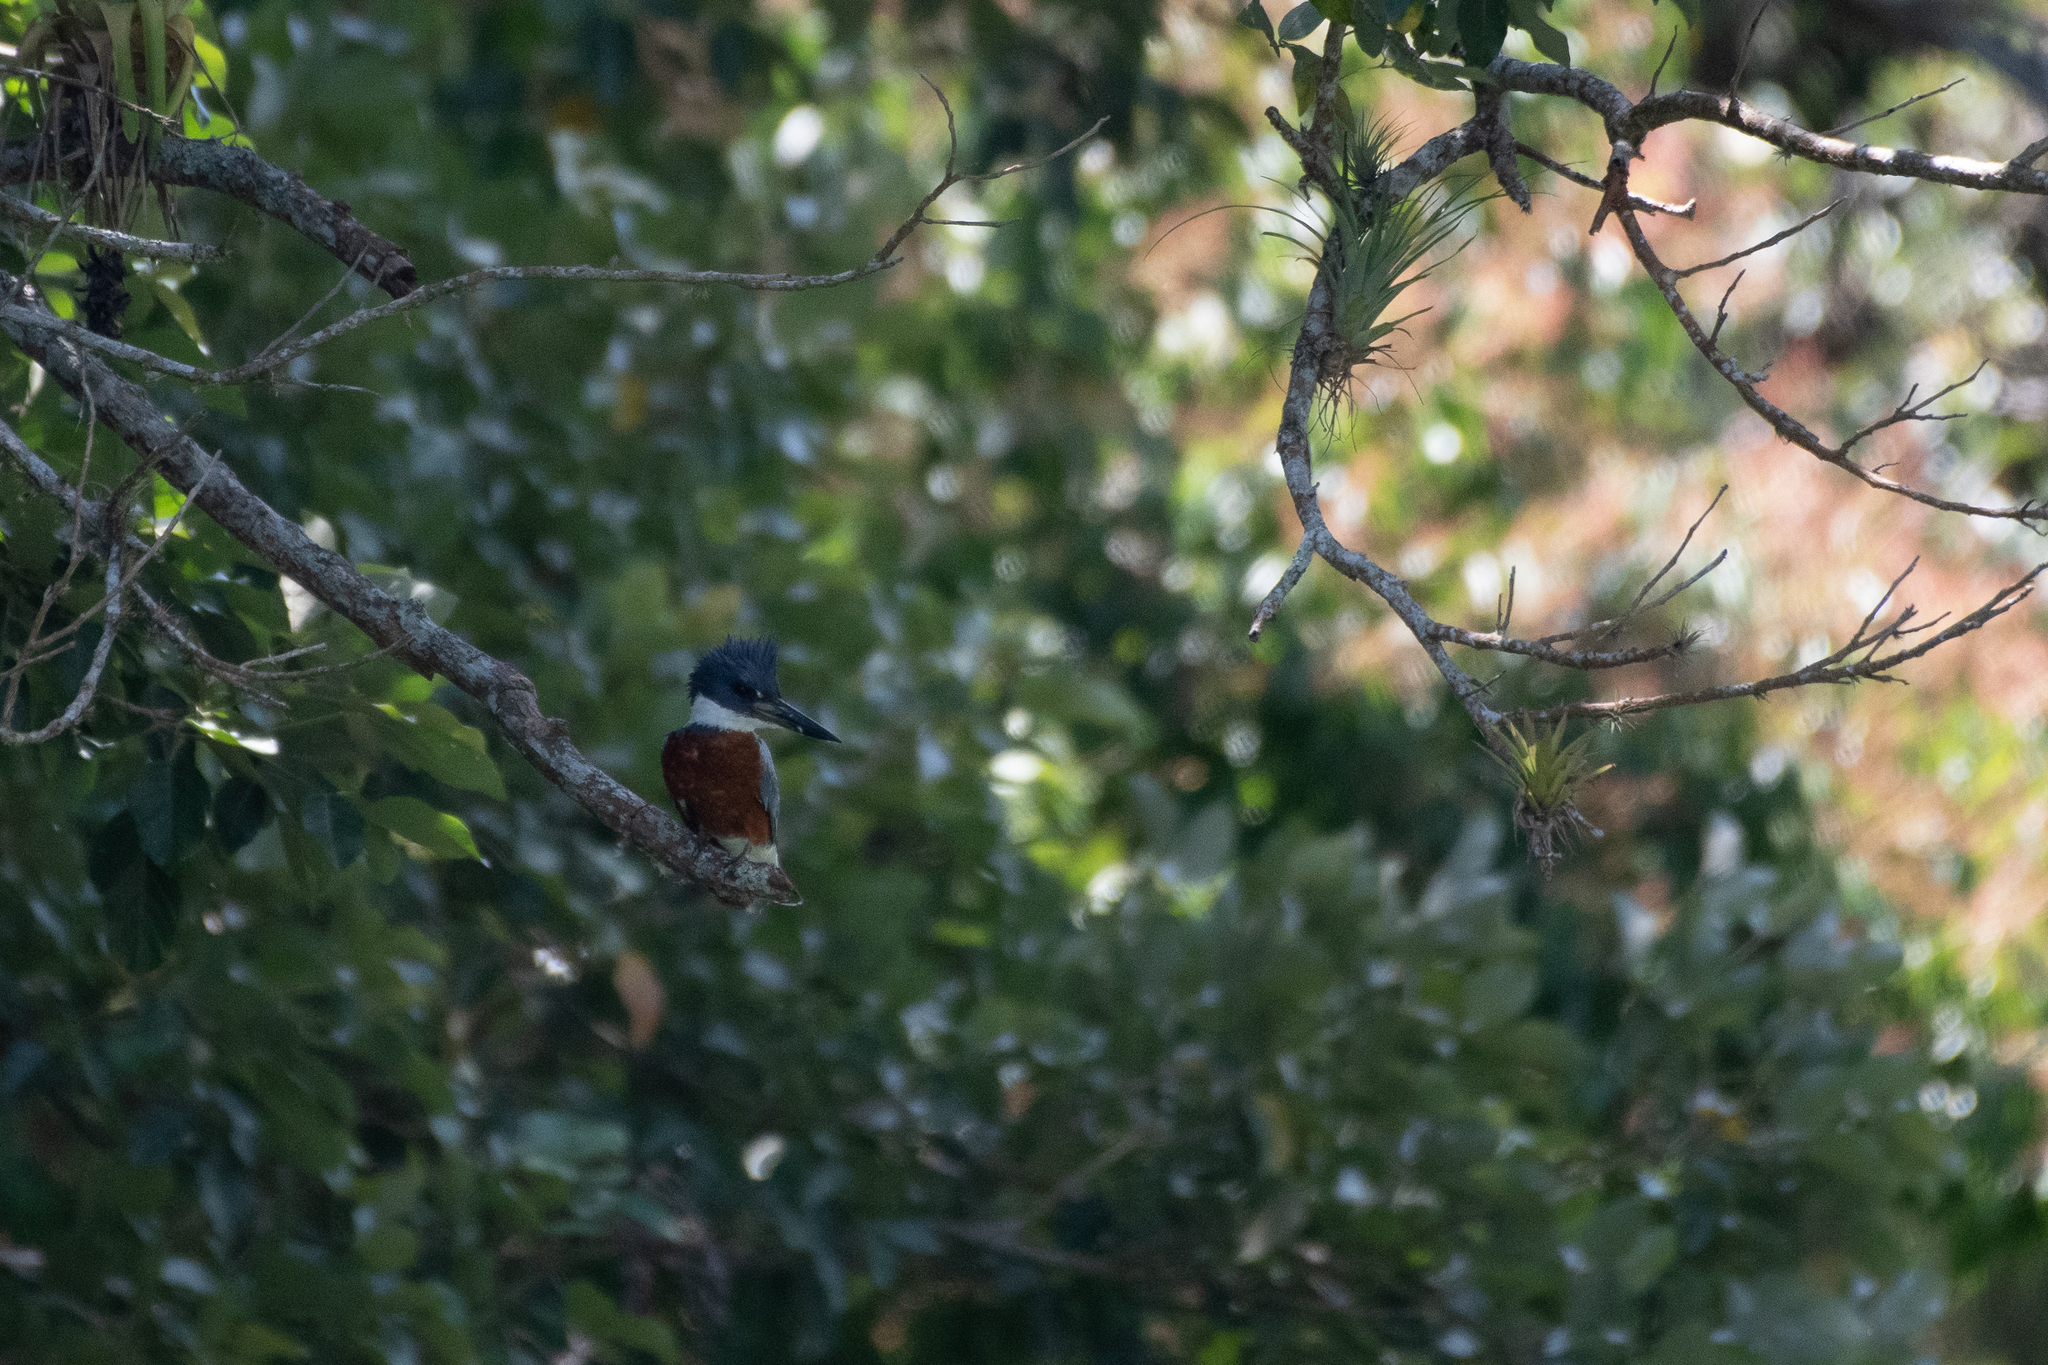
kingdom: Animalia
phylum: Chordata
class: Aves
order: Coraciiformes
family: Alcedinidae
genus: Megaceryle
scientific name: Megaceryle torquata
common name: Ringed kingfisher
